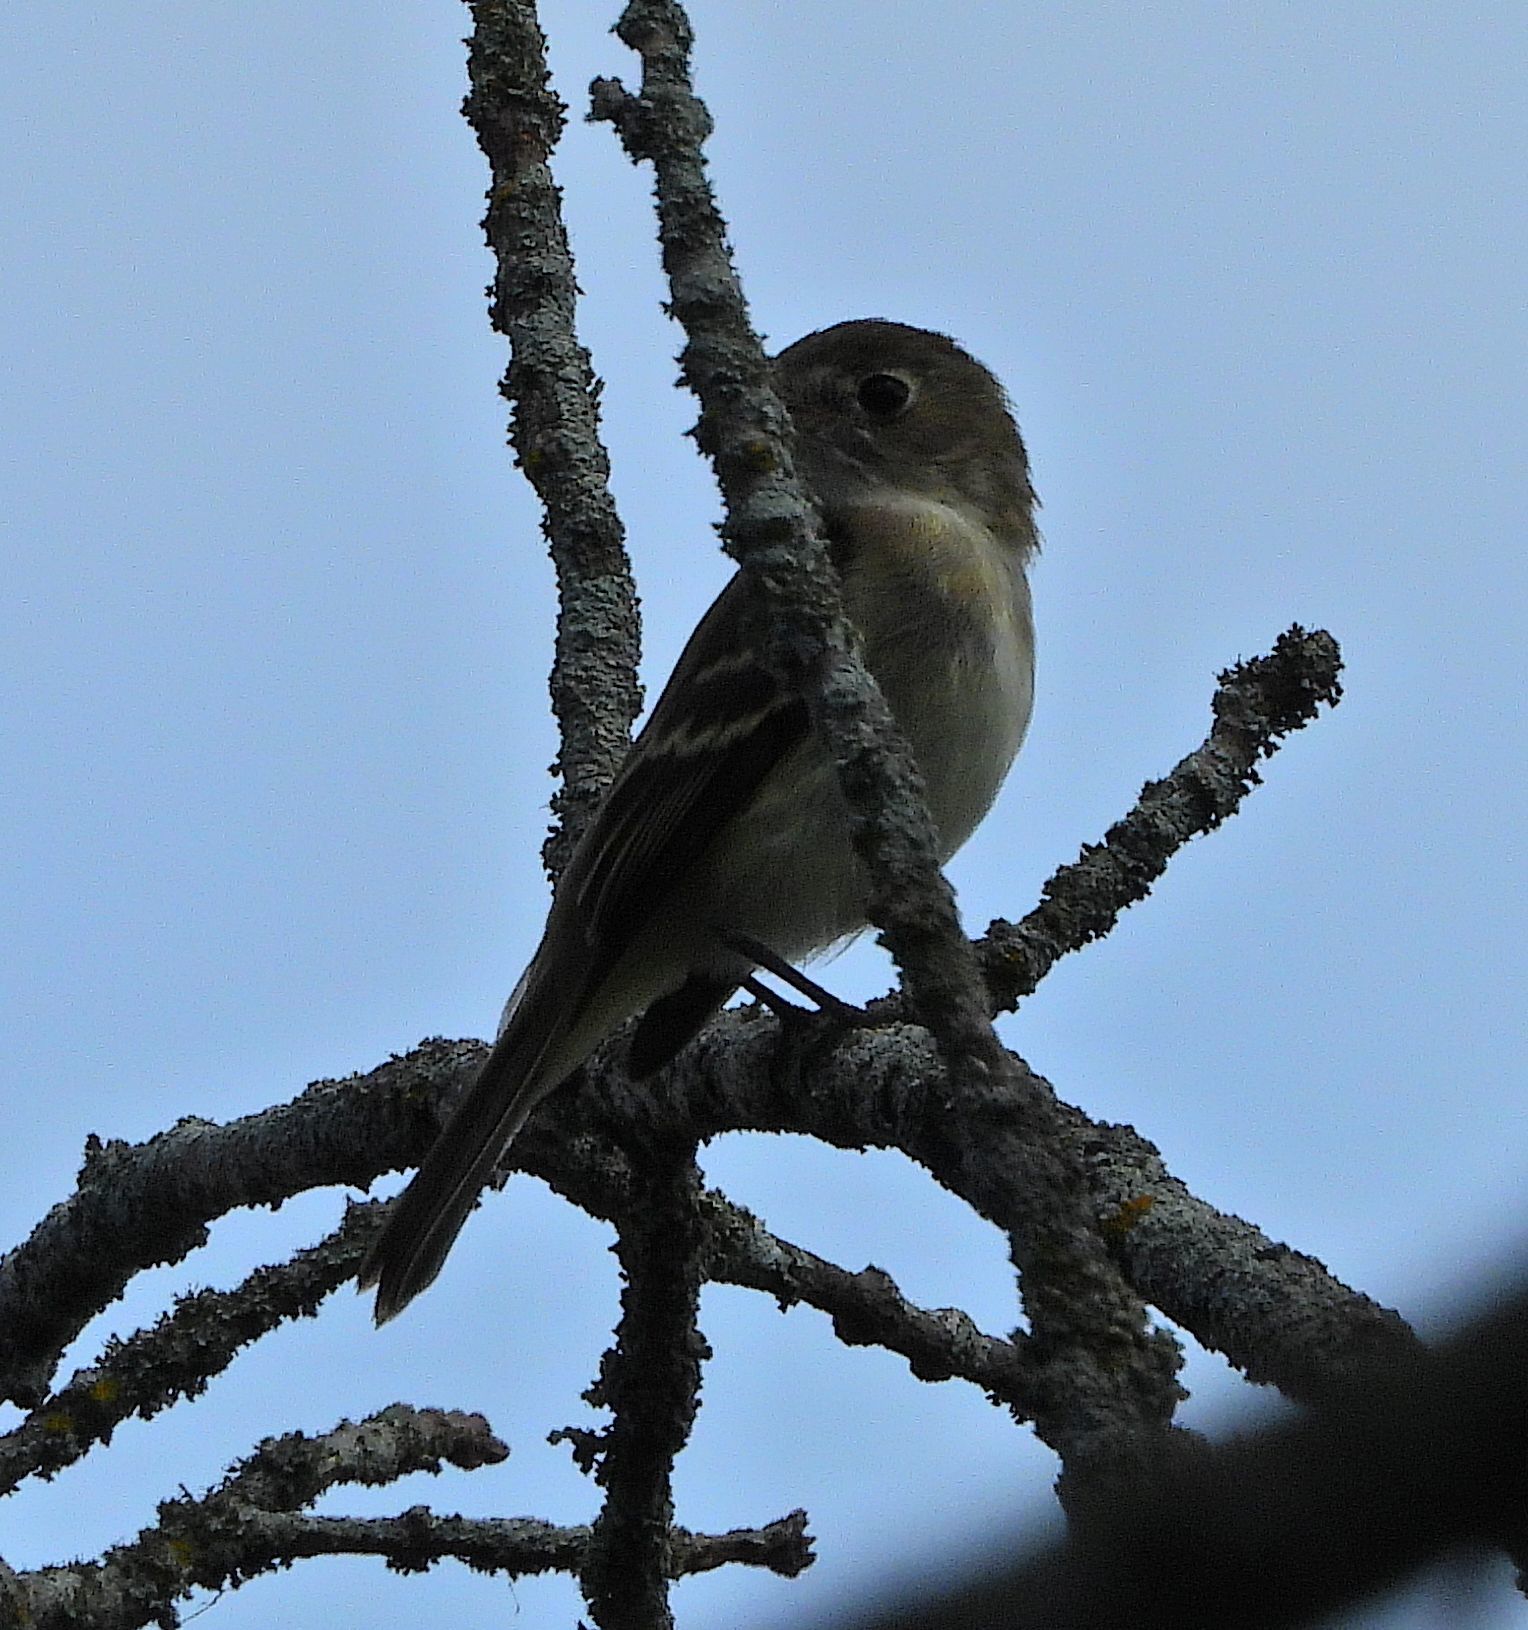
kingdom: Animalia
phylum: Chordata
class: Aves
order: Passeriformes
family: Tyrannidae
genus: Empidonax
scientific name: Empidonax minimus
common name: Least flycatcher
